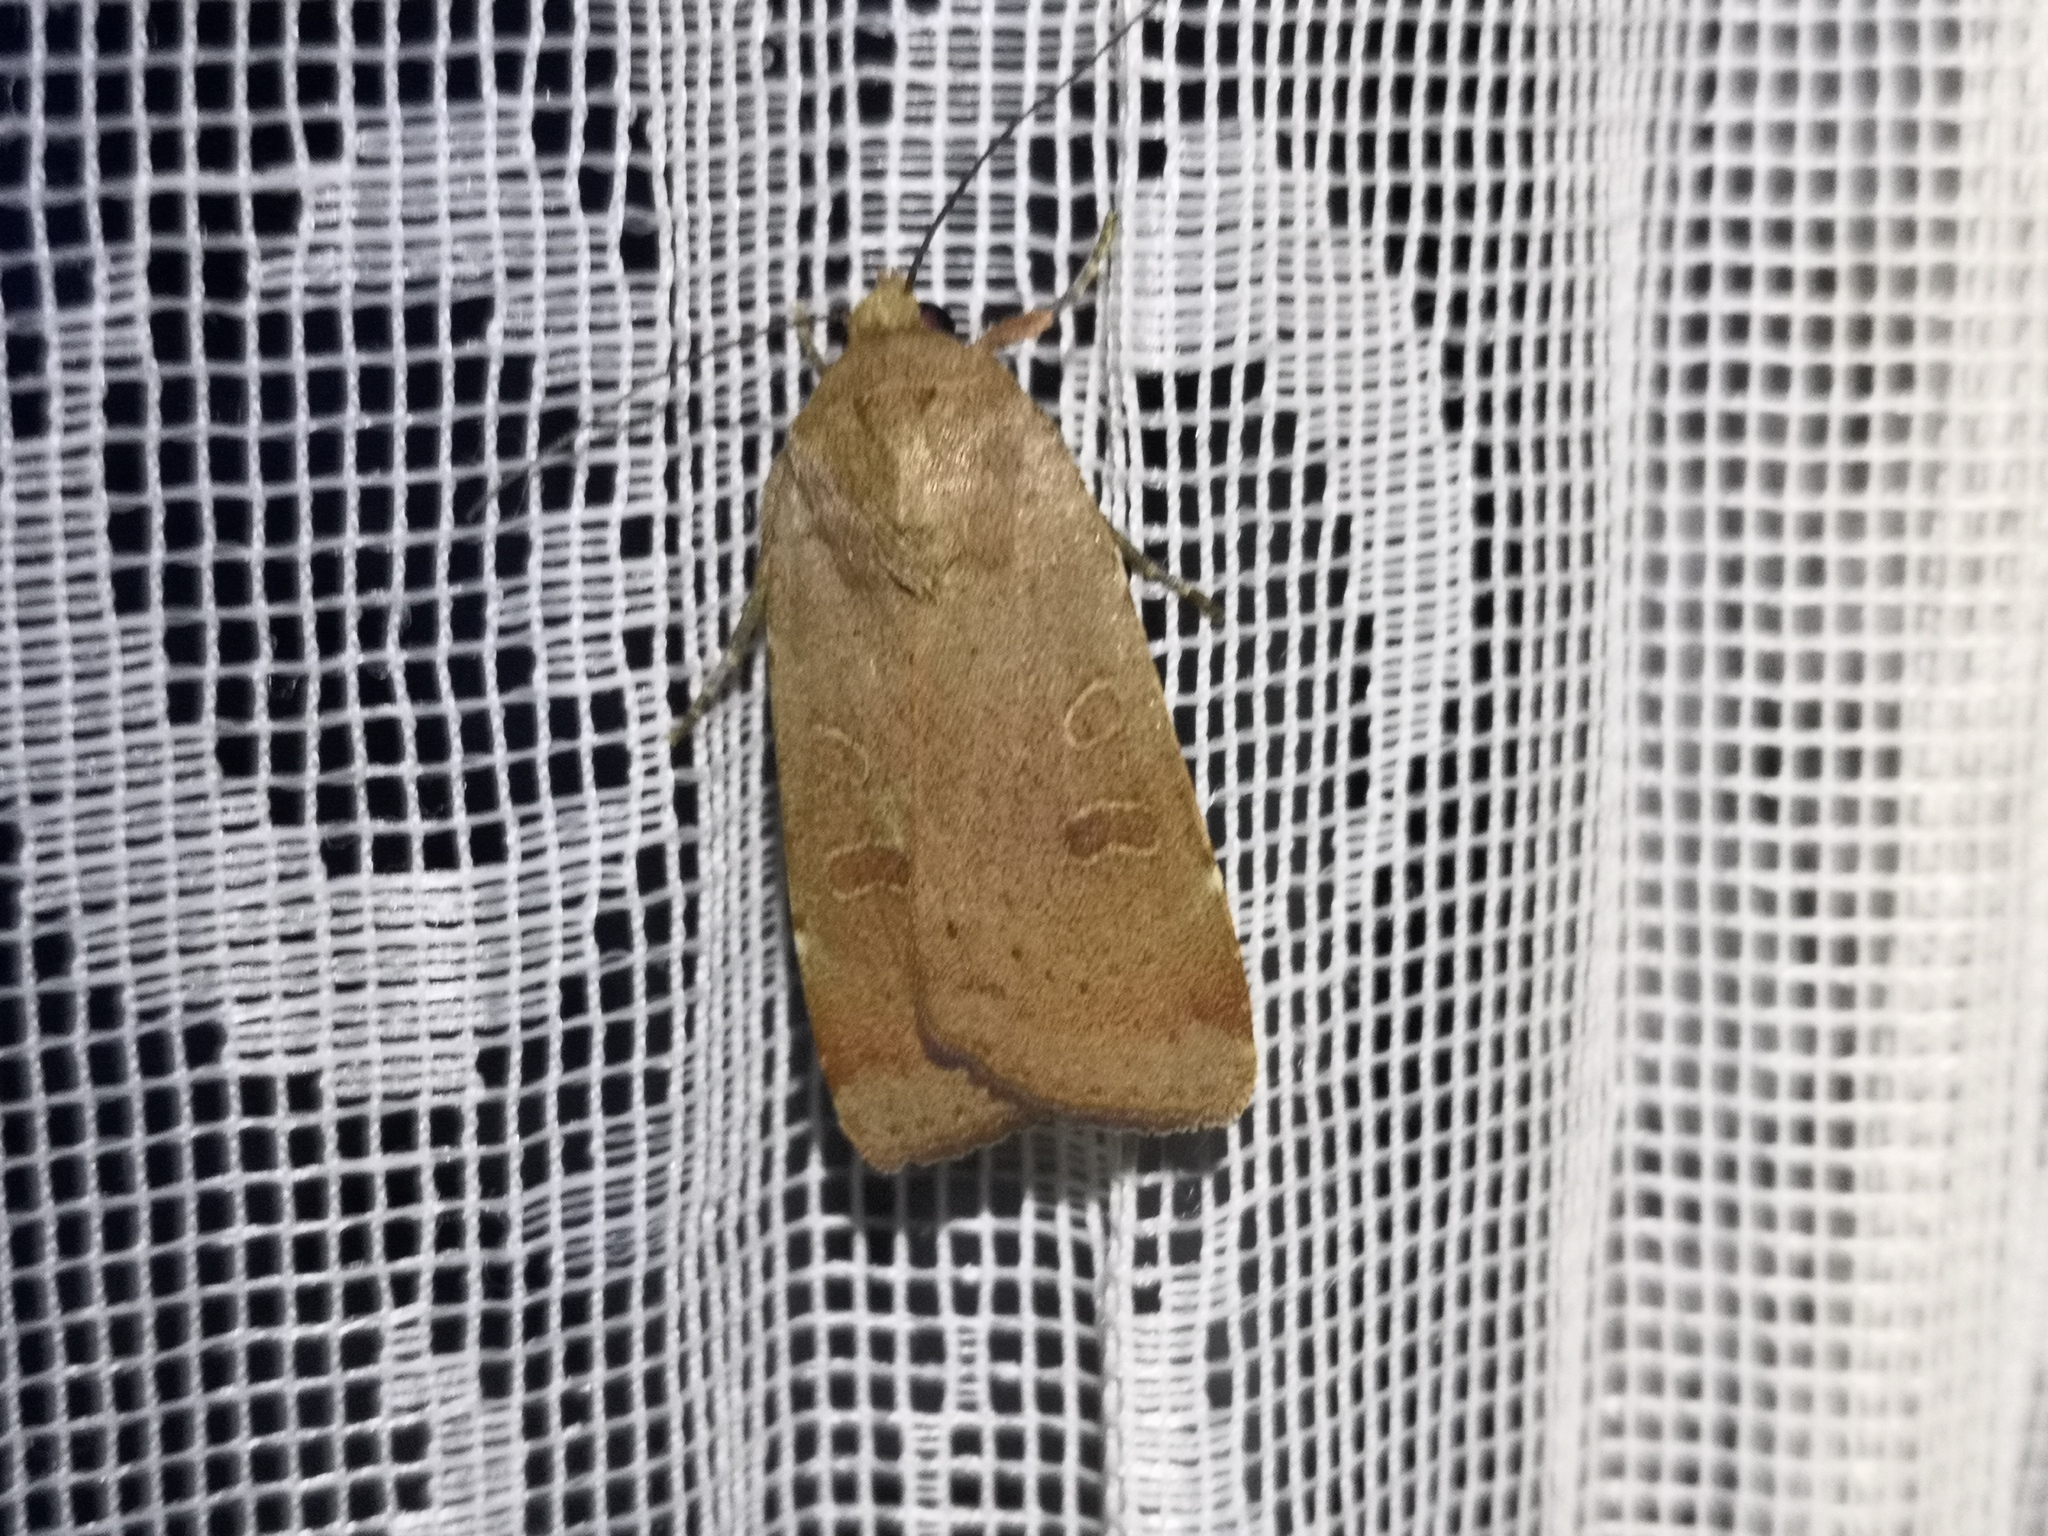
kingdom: Animalia
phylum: Arthropoda
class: Insecta
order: Lepidoptera
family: Noctuidae
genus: Noctua
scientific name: Noctua comes
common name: Lesser yellow underwing
